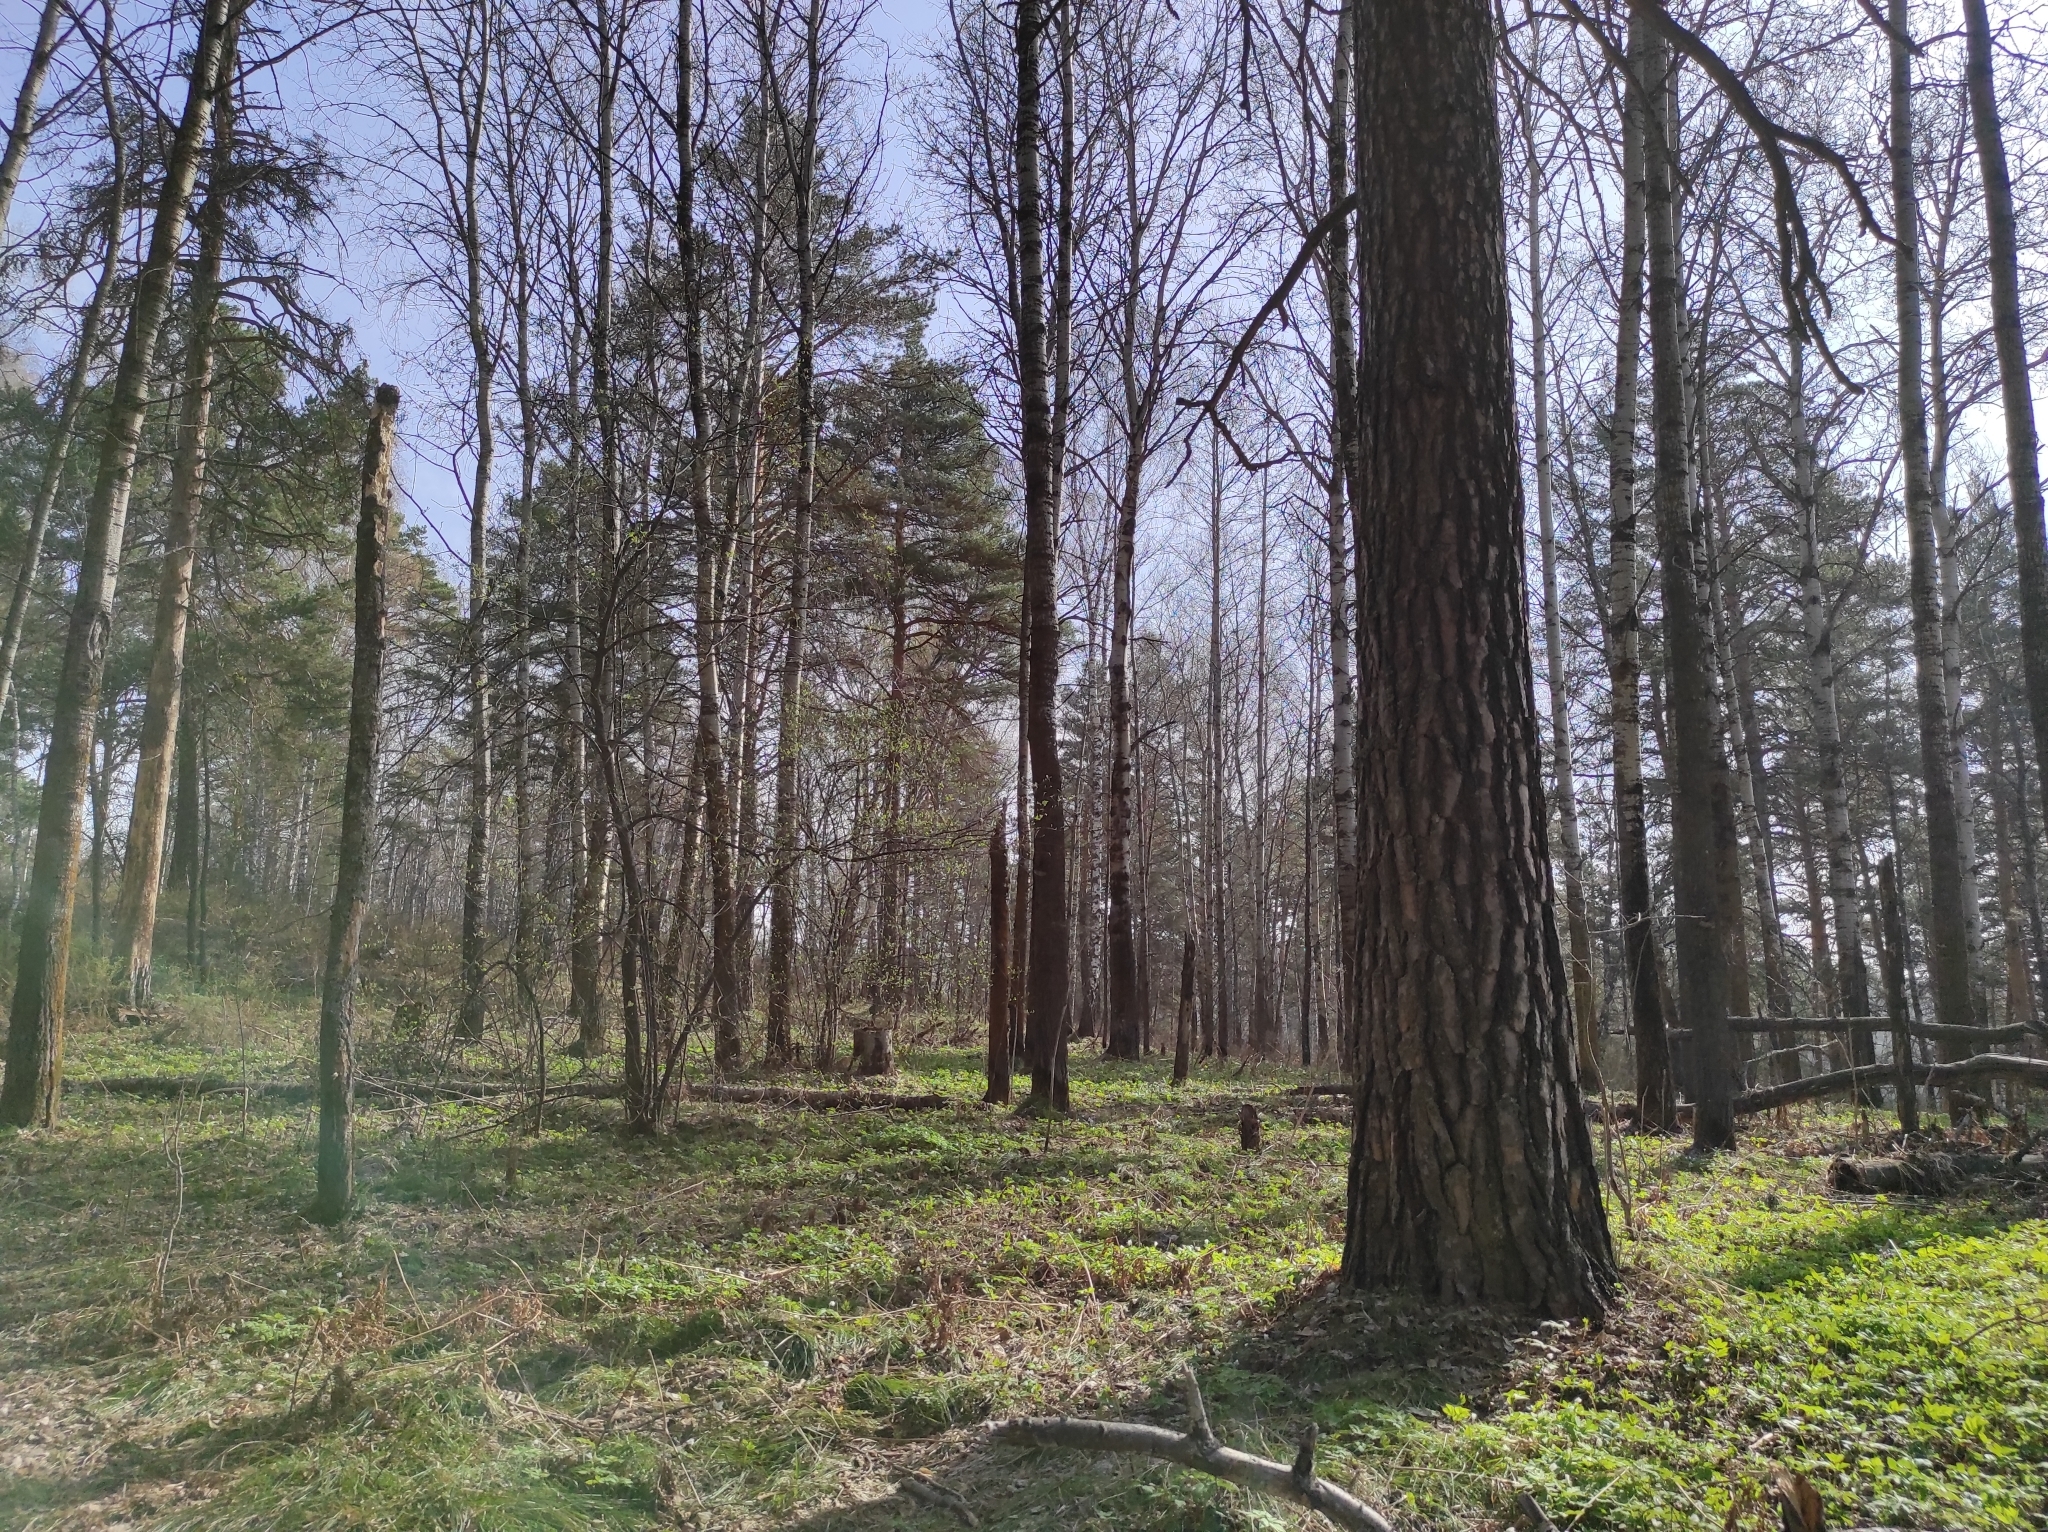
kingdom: Plantae
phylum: Tracheophyta
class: Pinopsida
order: Pinales
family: Pinaceae
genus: Pinus
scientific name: Pinus sylvestris
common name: Scots pine
